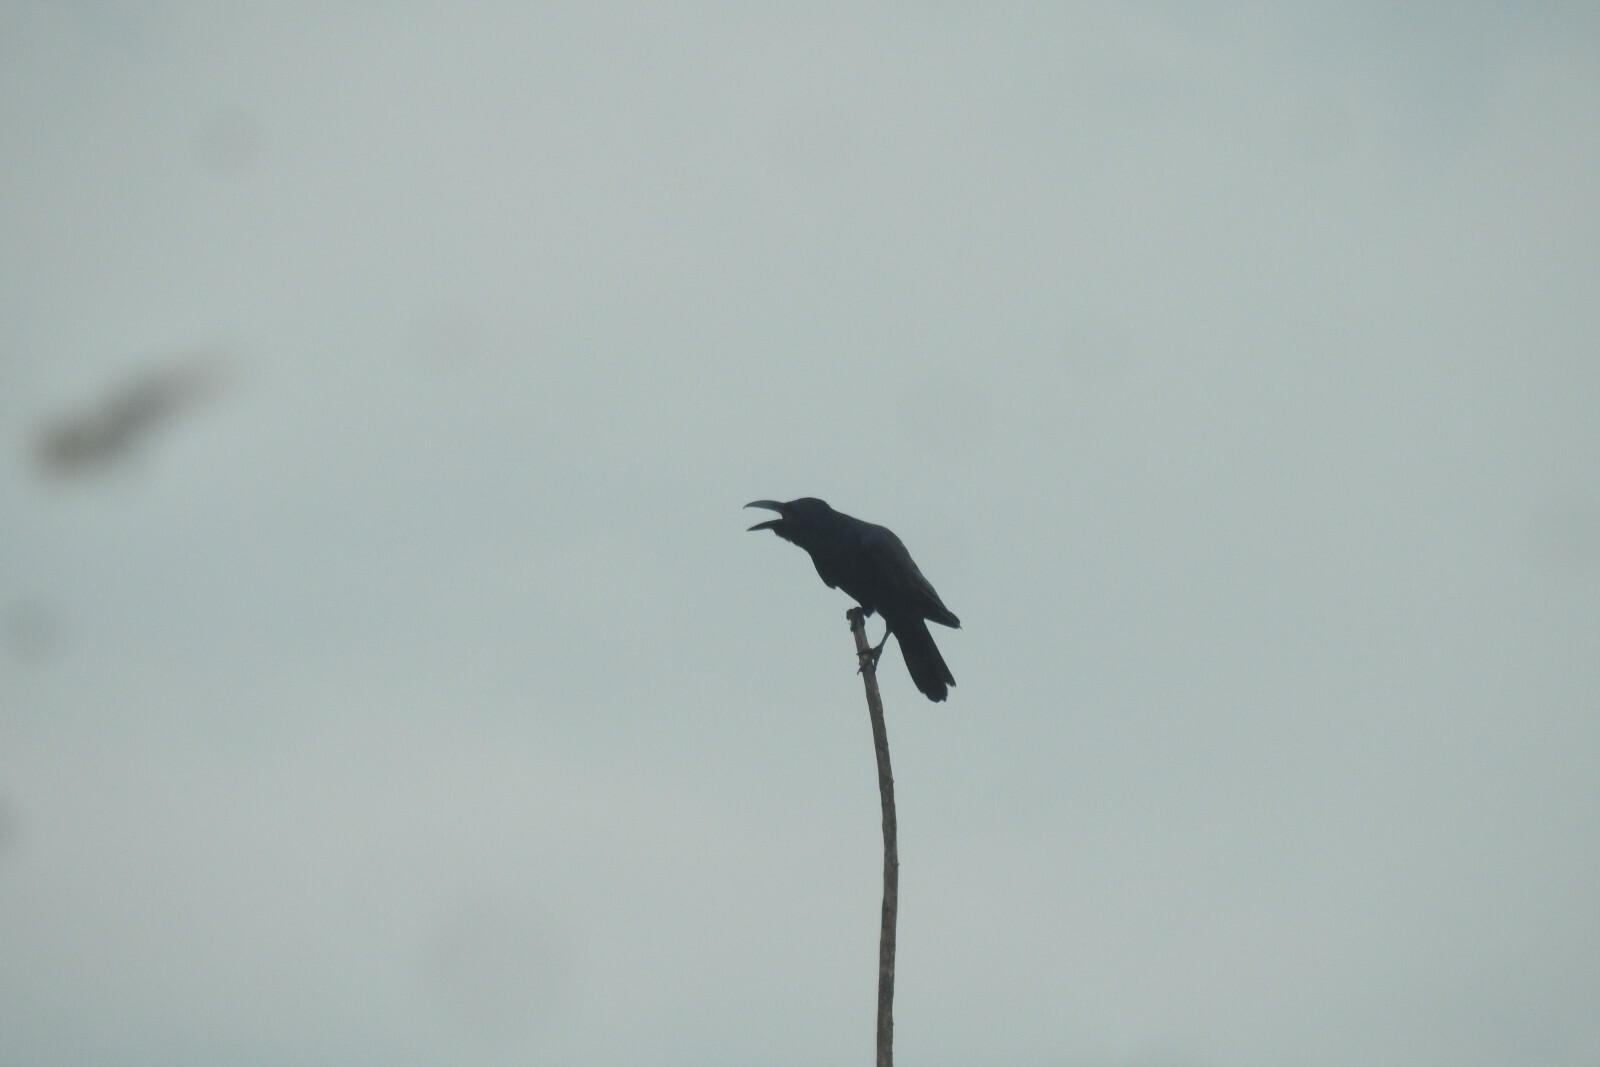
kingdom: Animalia
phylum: Chordata
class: Aves
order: Passeriformes
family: Corvidae
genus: Corvus
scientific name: Corvus macrorhynchos
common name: Large-billed crow
